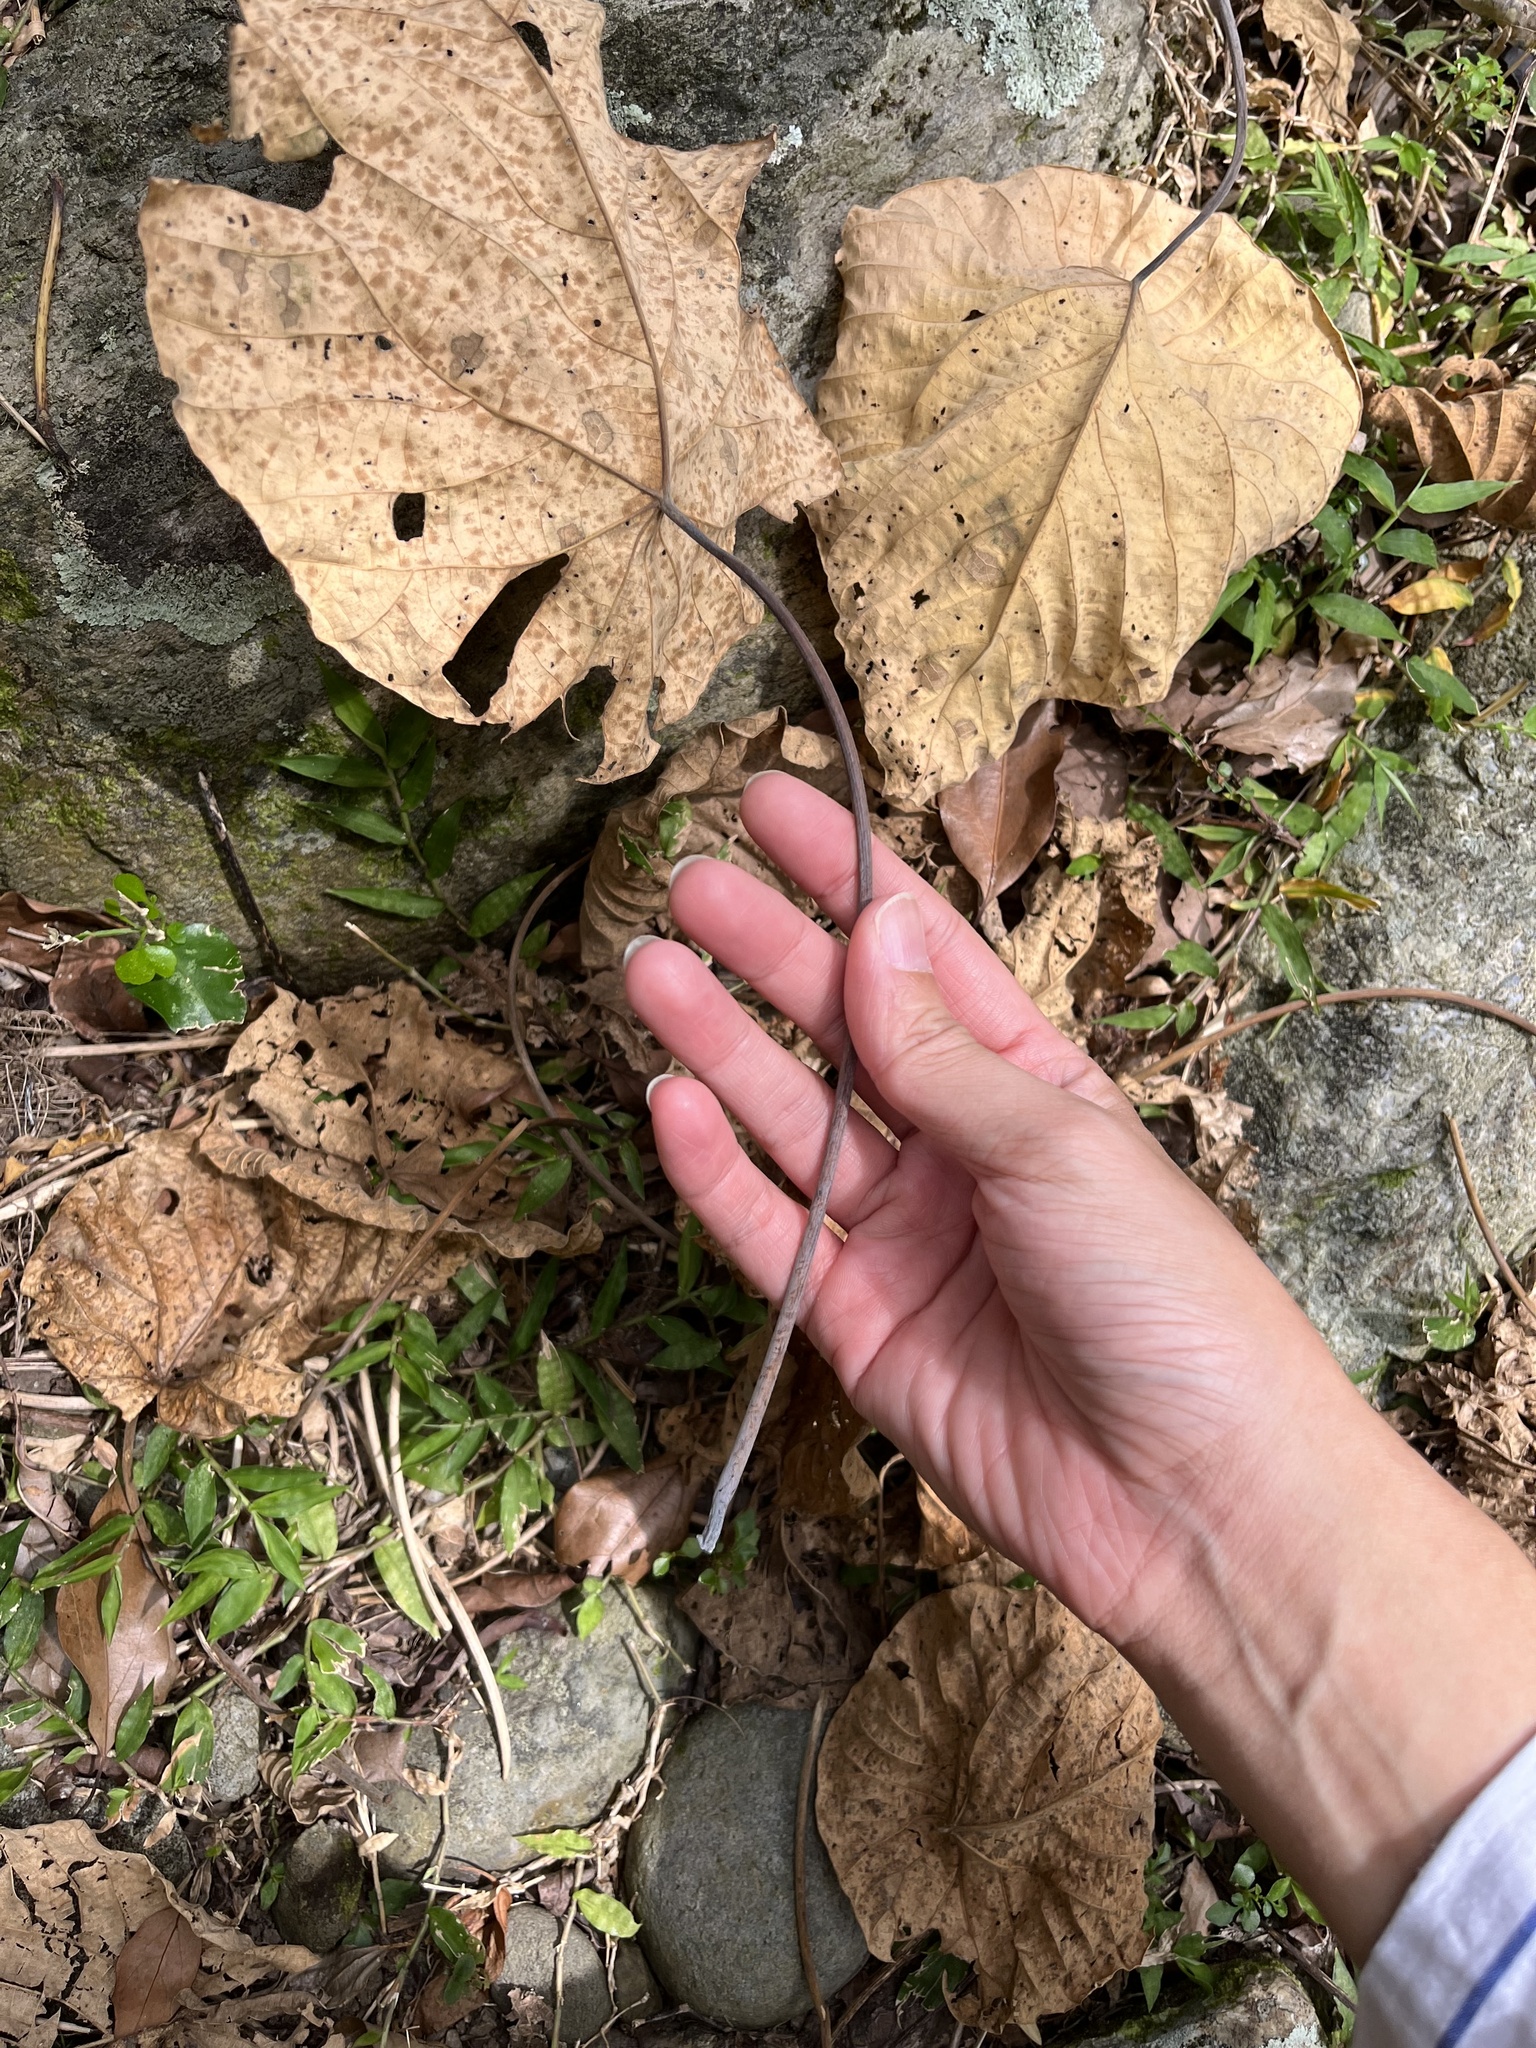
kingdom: Plantae
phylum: Tracheophyta
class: Magnoliopsida
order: Malpighiales
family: Euphorbiaceae
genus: Macaranga
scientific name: Macaranga tanarius
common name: Parasol leaf tree
